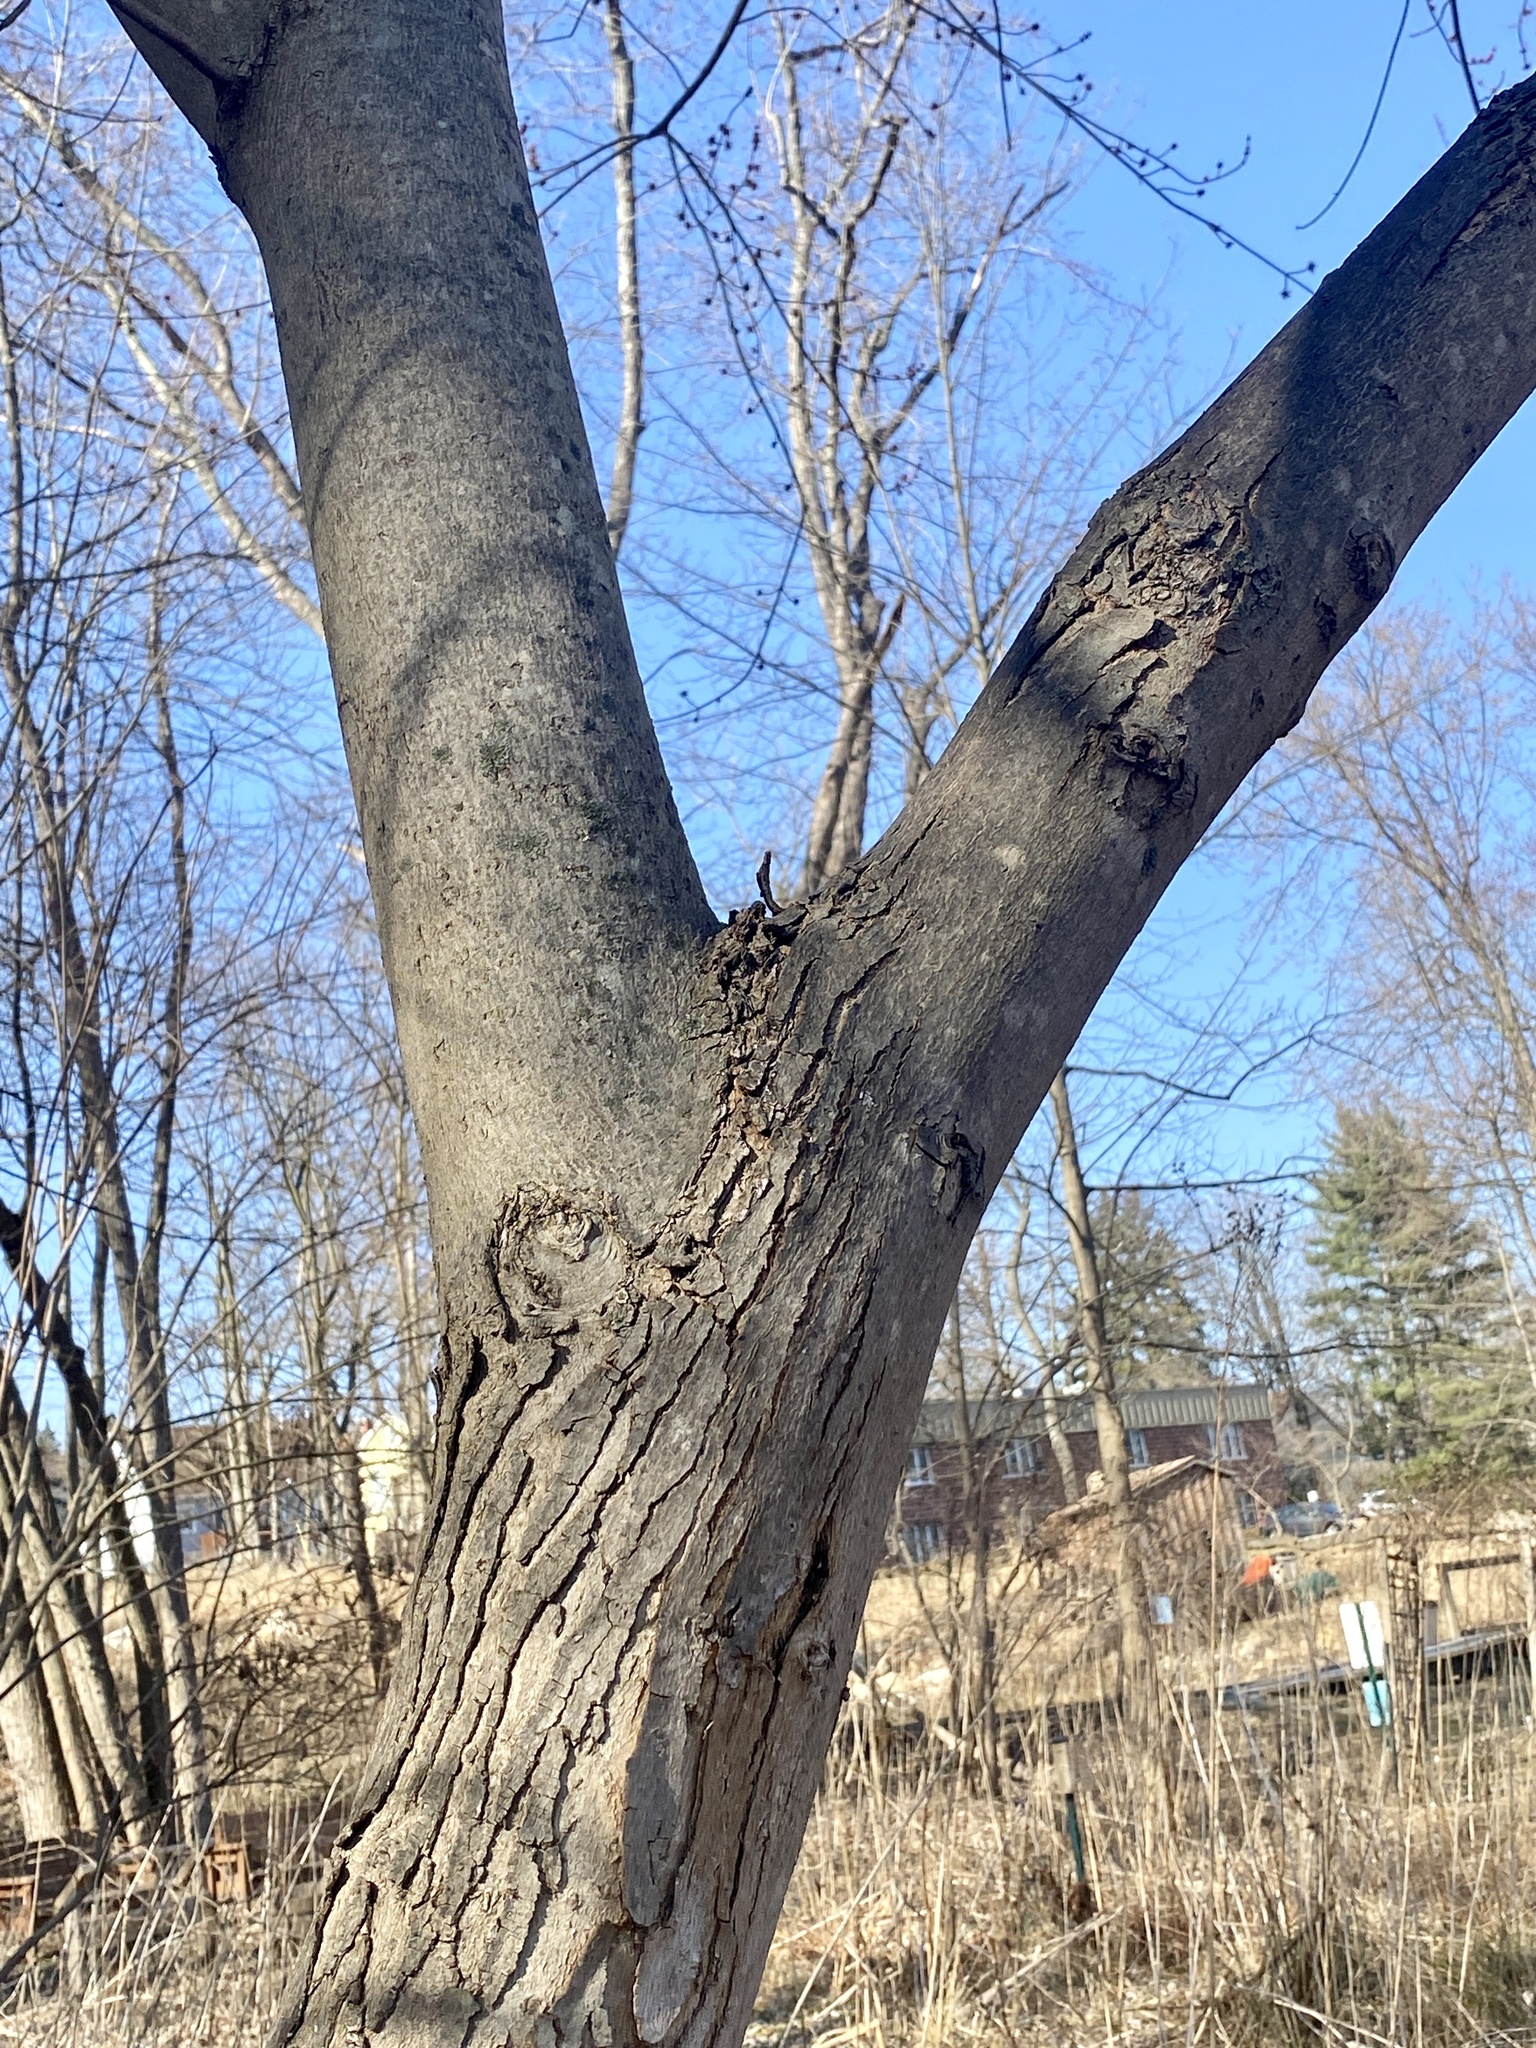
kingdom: Plantae
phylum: Tracheophyta
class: Magnoliopsida
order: Sapindales
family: Sapindaceae
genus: Acer
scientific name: Acer rubrum
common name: Red maple
